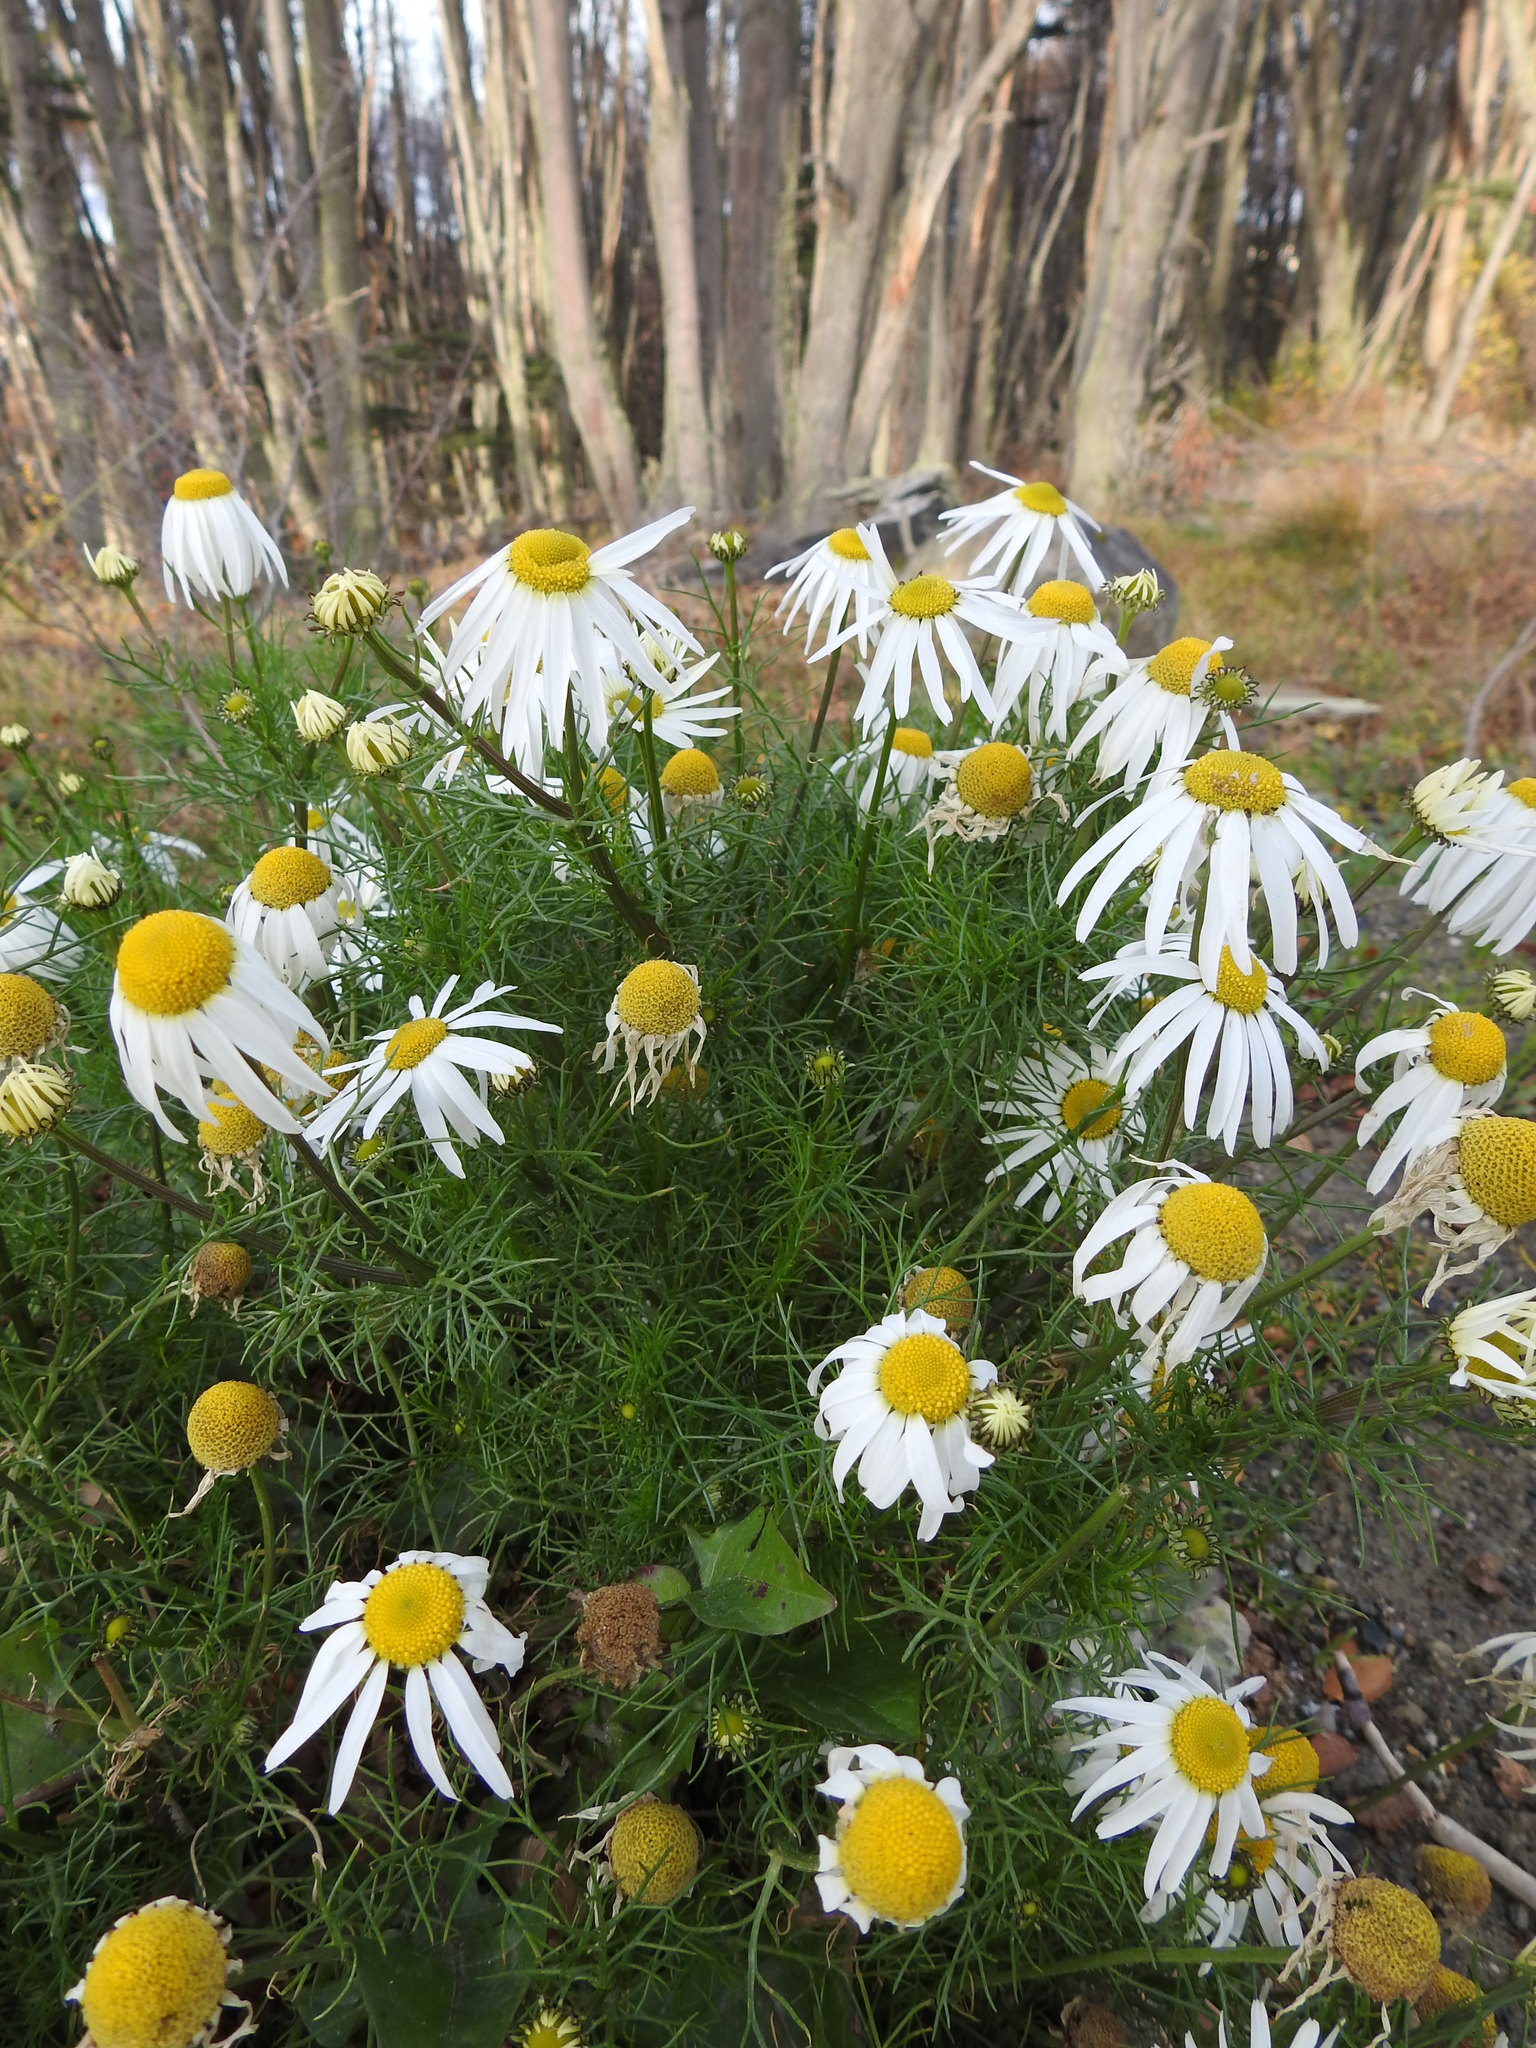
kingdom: Plantae
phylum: Tracheophyta
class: Magnoliopsida
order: Asterales
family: Asteraceae
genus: Tripleurospermum
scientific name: Tripleurospermum maritimum
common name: Sea mayweed
